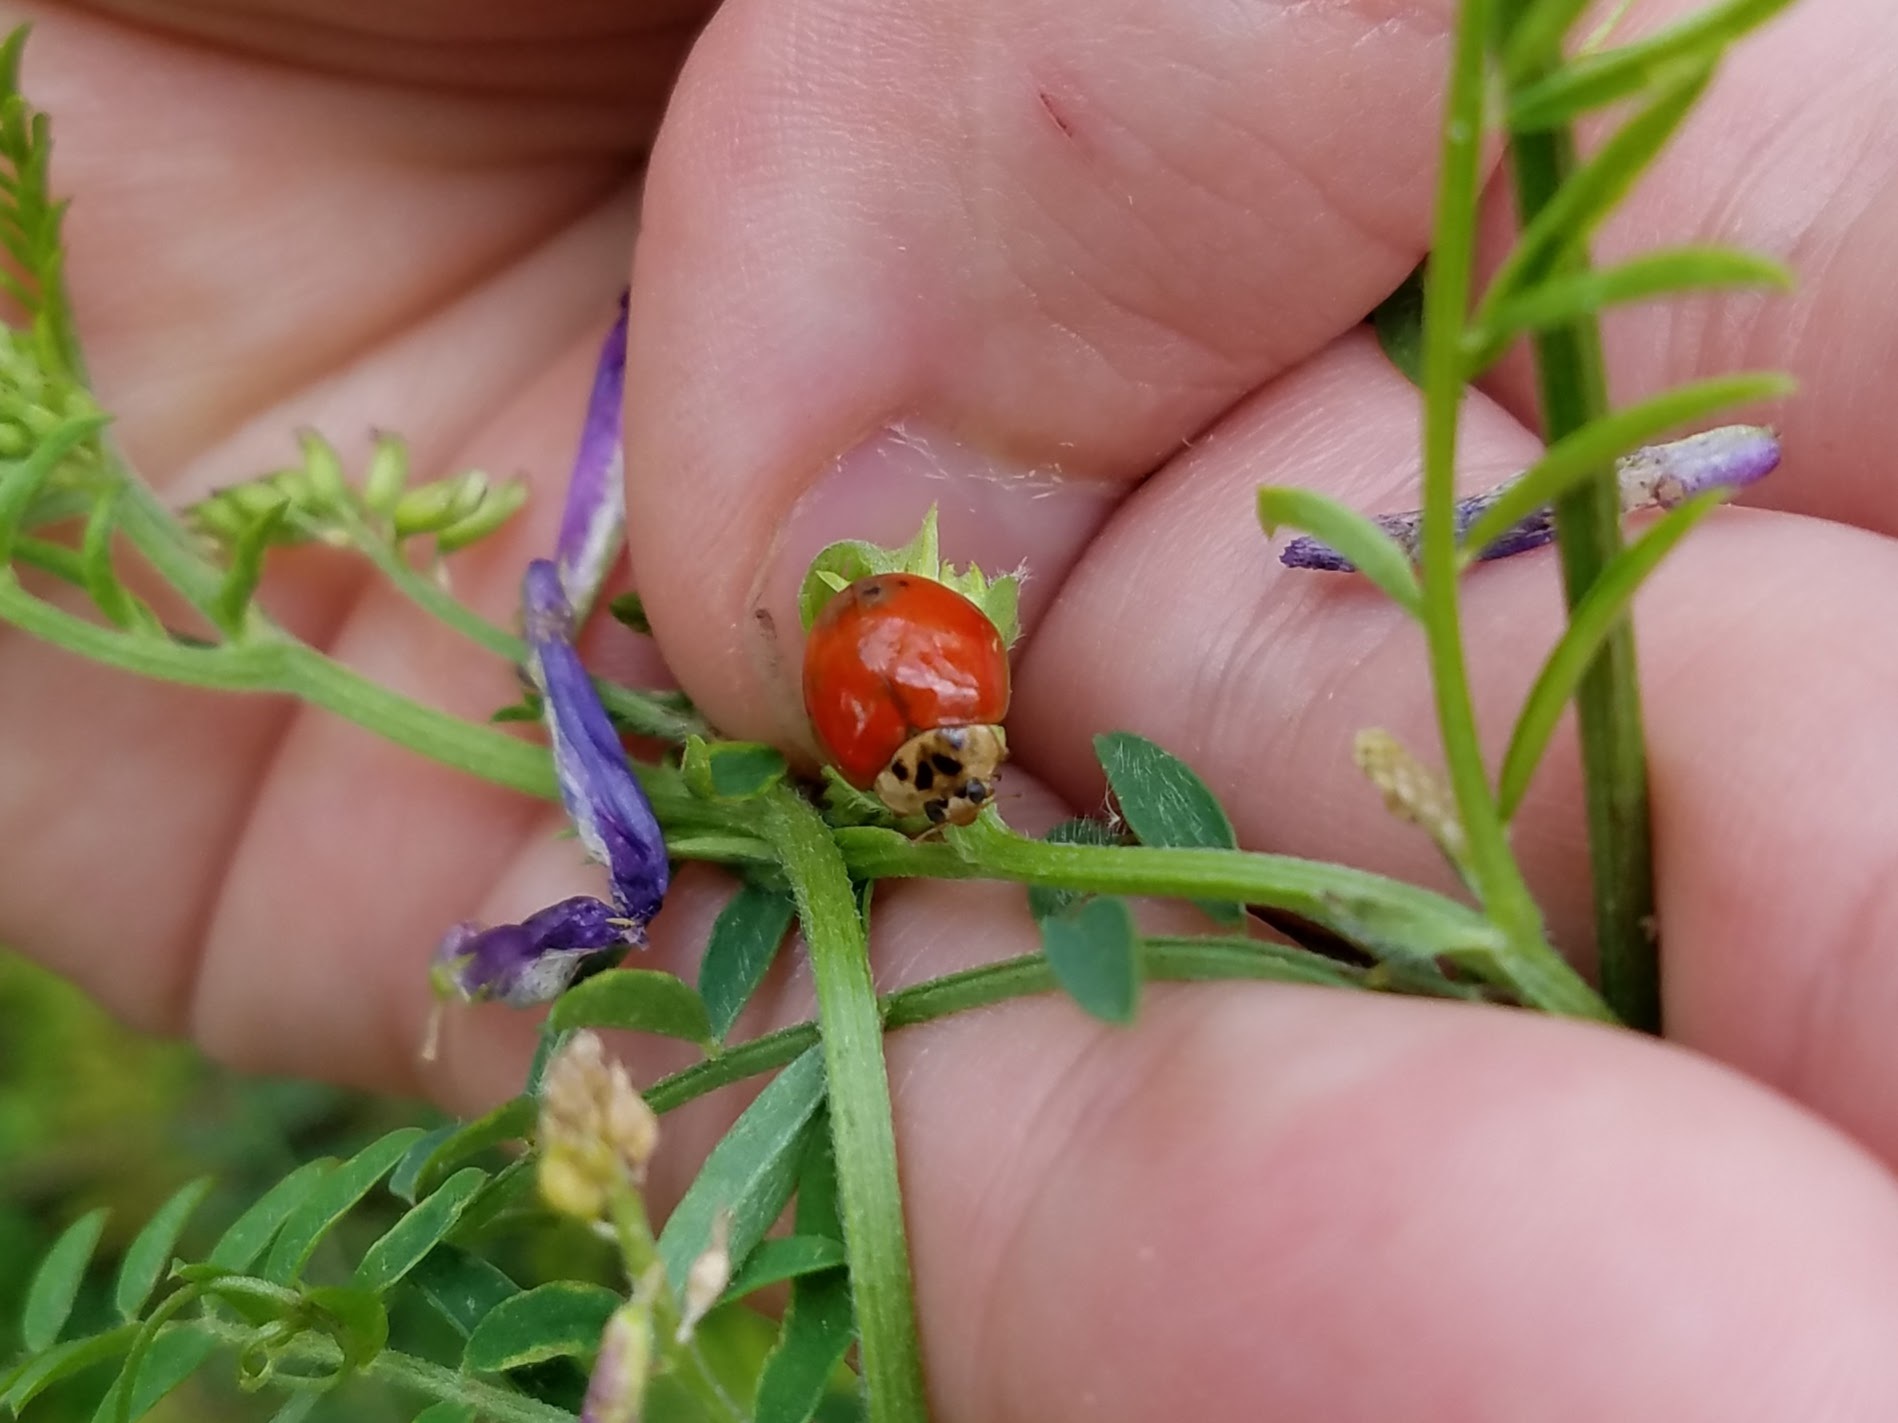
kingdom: Animalia
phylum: Arthropoda
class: Insecta
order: Coleoptera
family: Coccinellidae
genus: Harmonia
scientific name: Harmonia axyridis
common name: Harlequin ladybird
